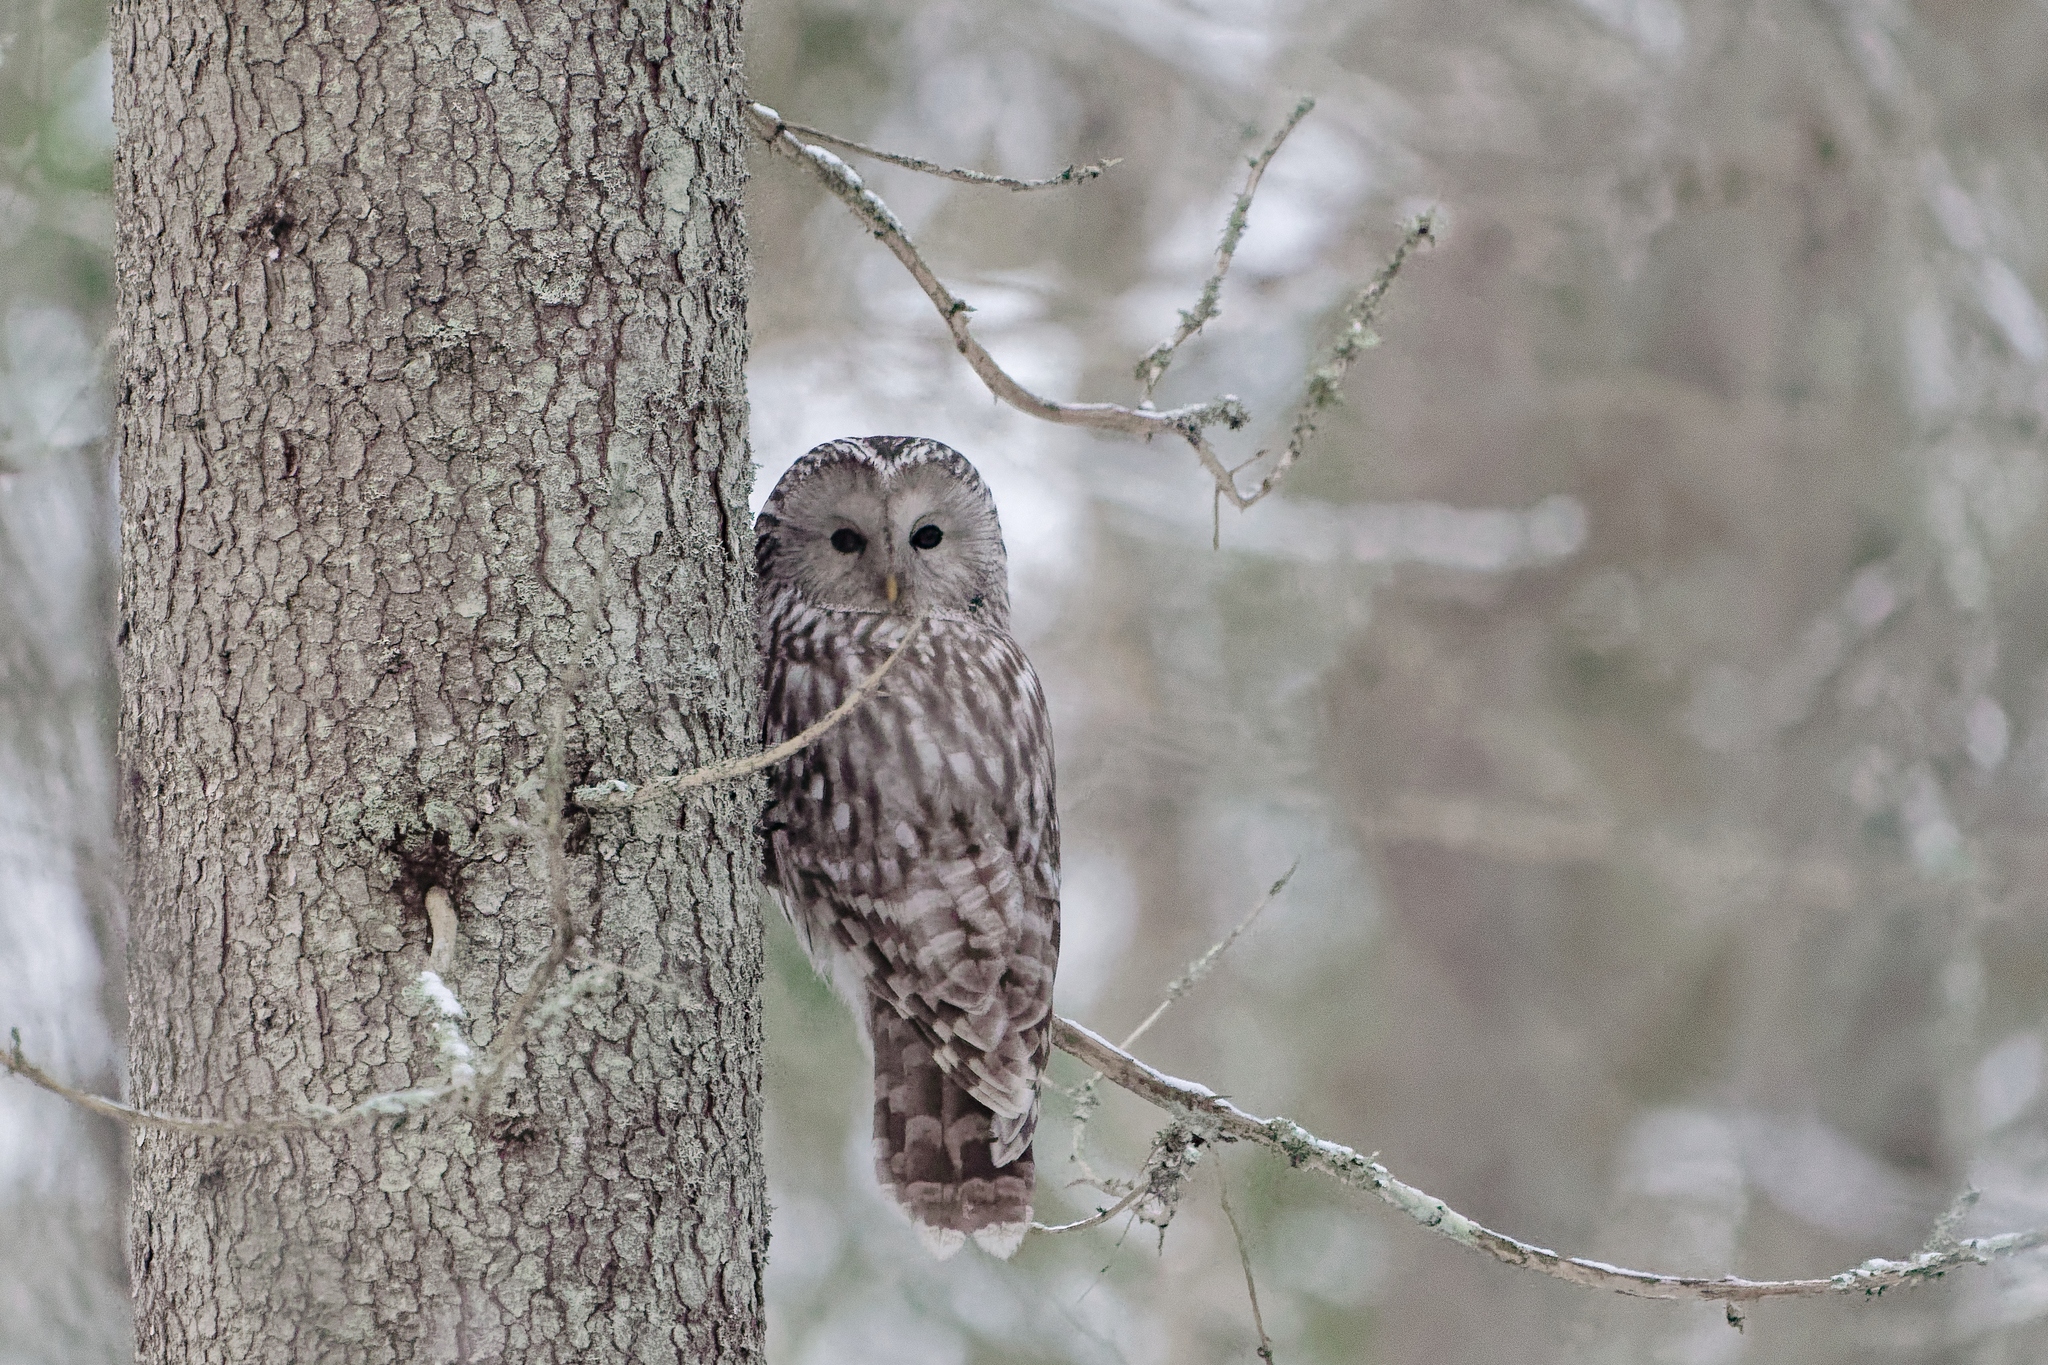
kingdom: Animalia
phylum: Chordata
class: Aves
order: Strigiformes
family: Strigidae
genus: Strix
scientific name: Strix uralensis
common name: Ural owl
